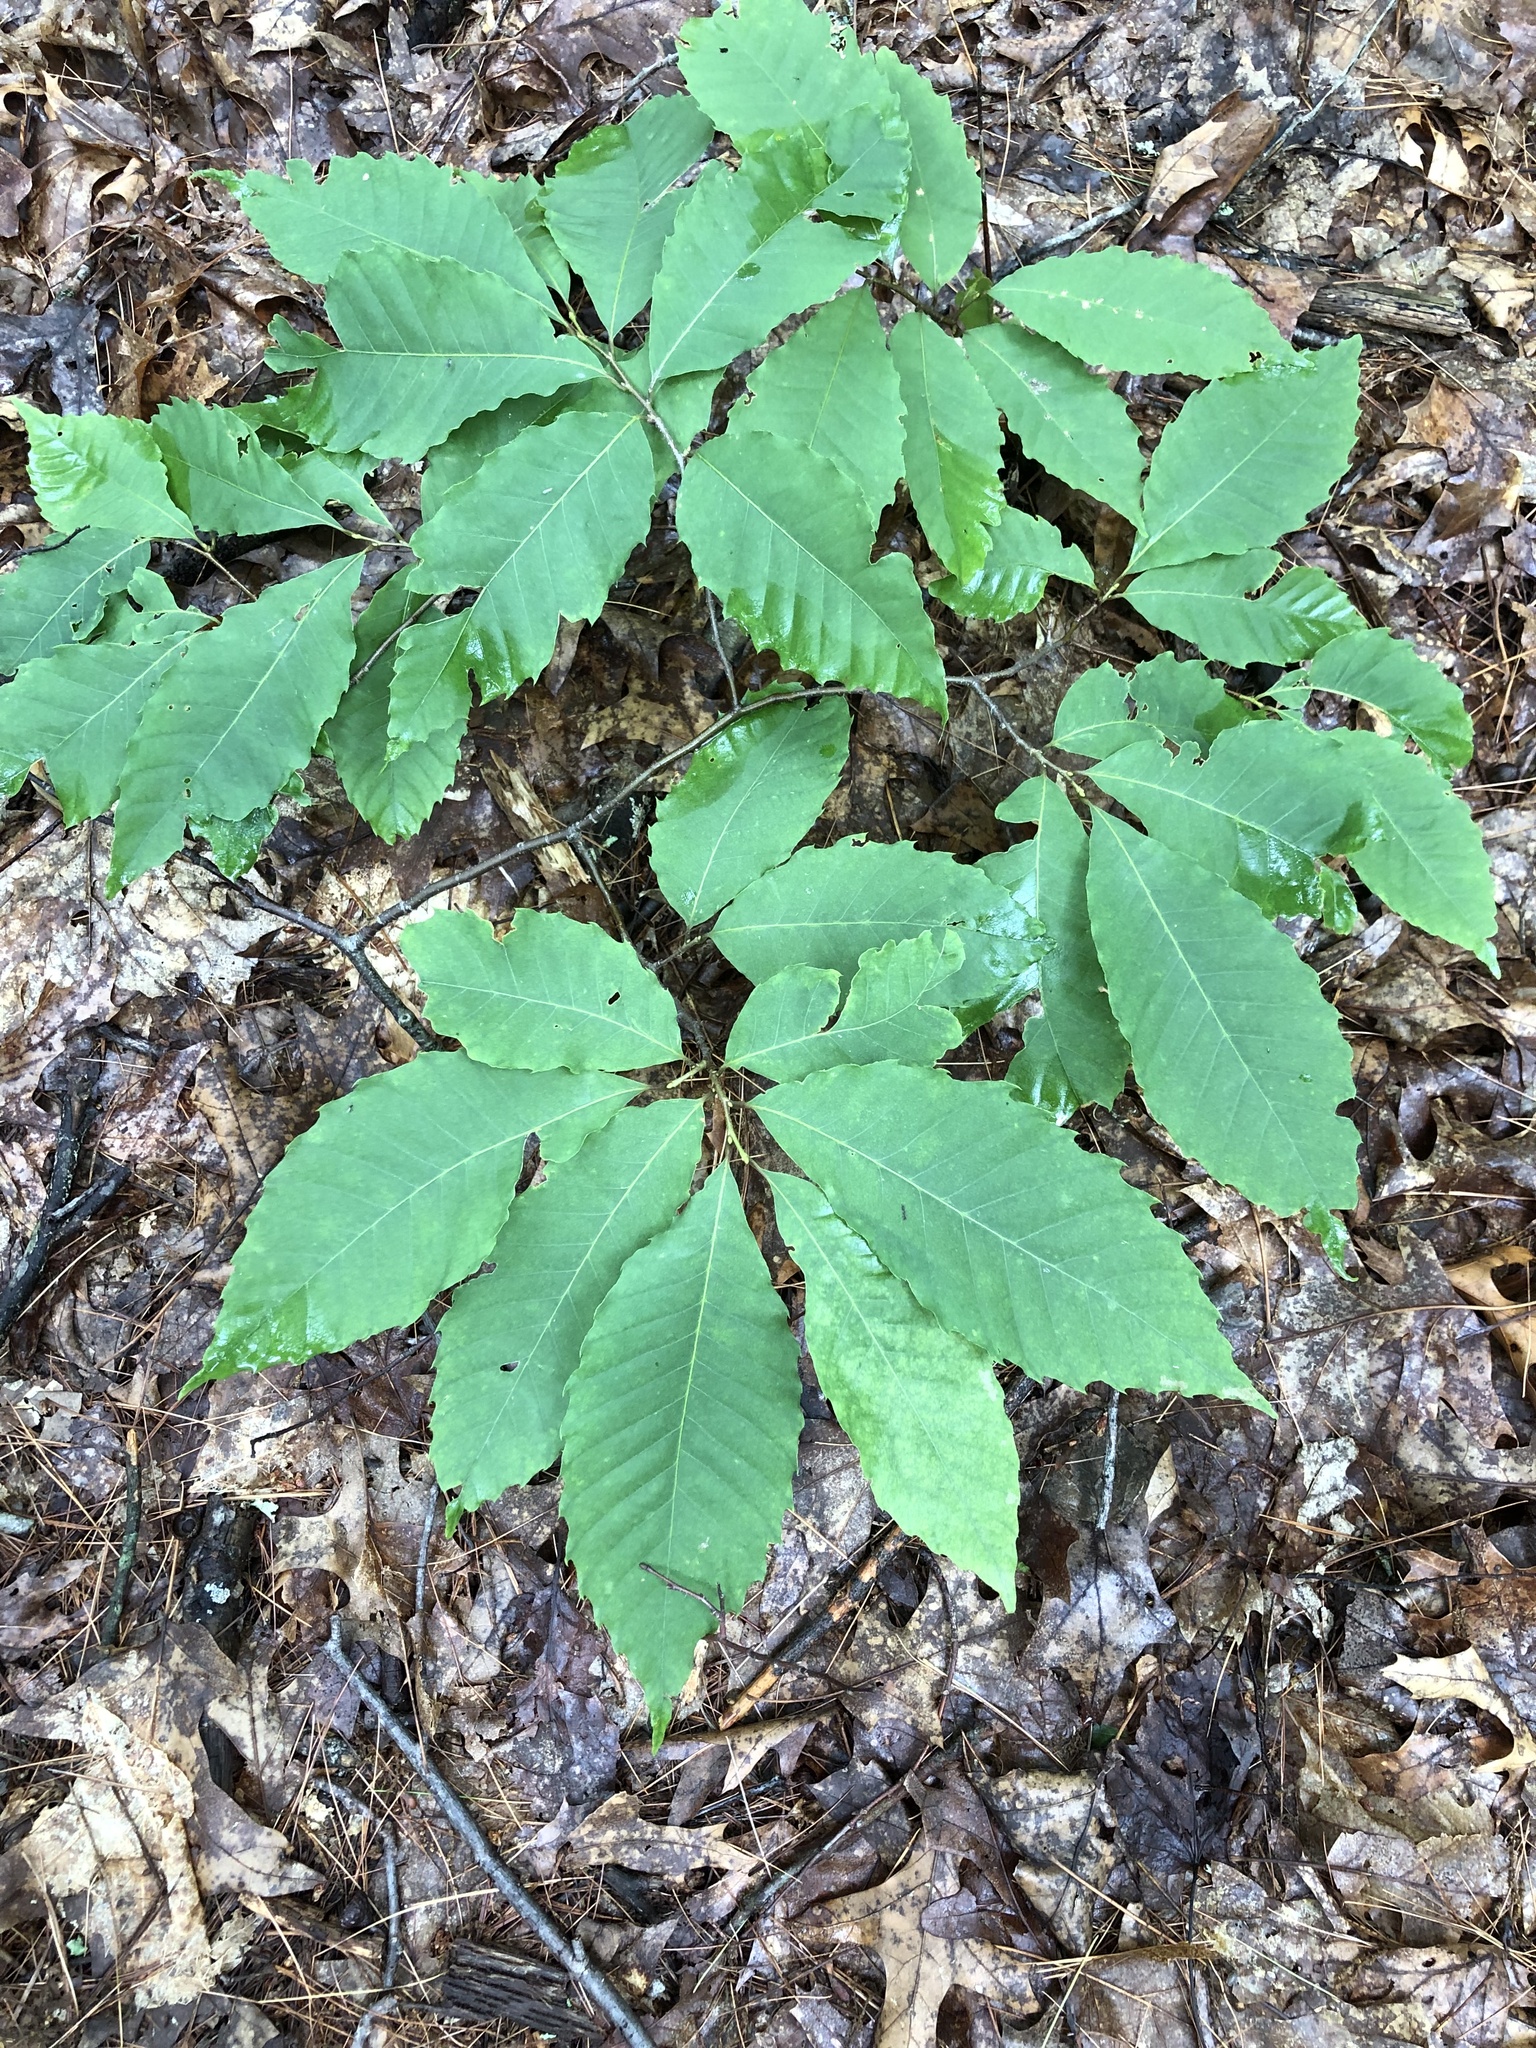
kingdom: Plantae
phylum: Tracheophyta
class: Magnoliopsida
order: Fagales
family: Fagaceae
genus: Castanea
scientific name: Castanea dentata
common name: American chestnut
